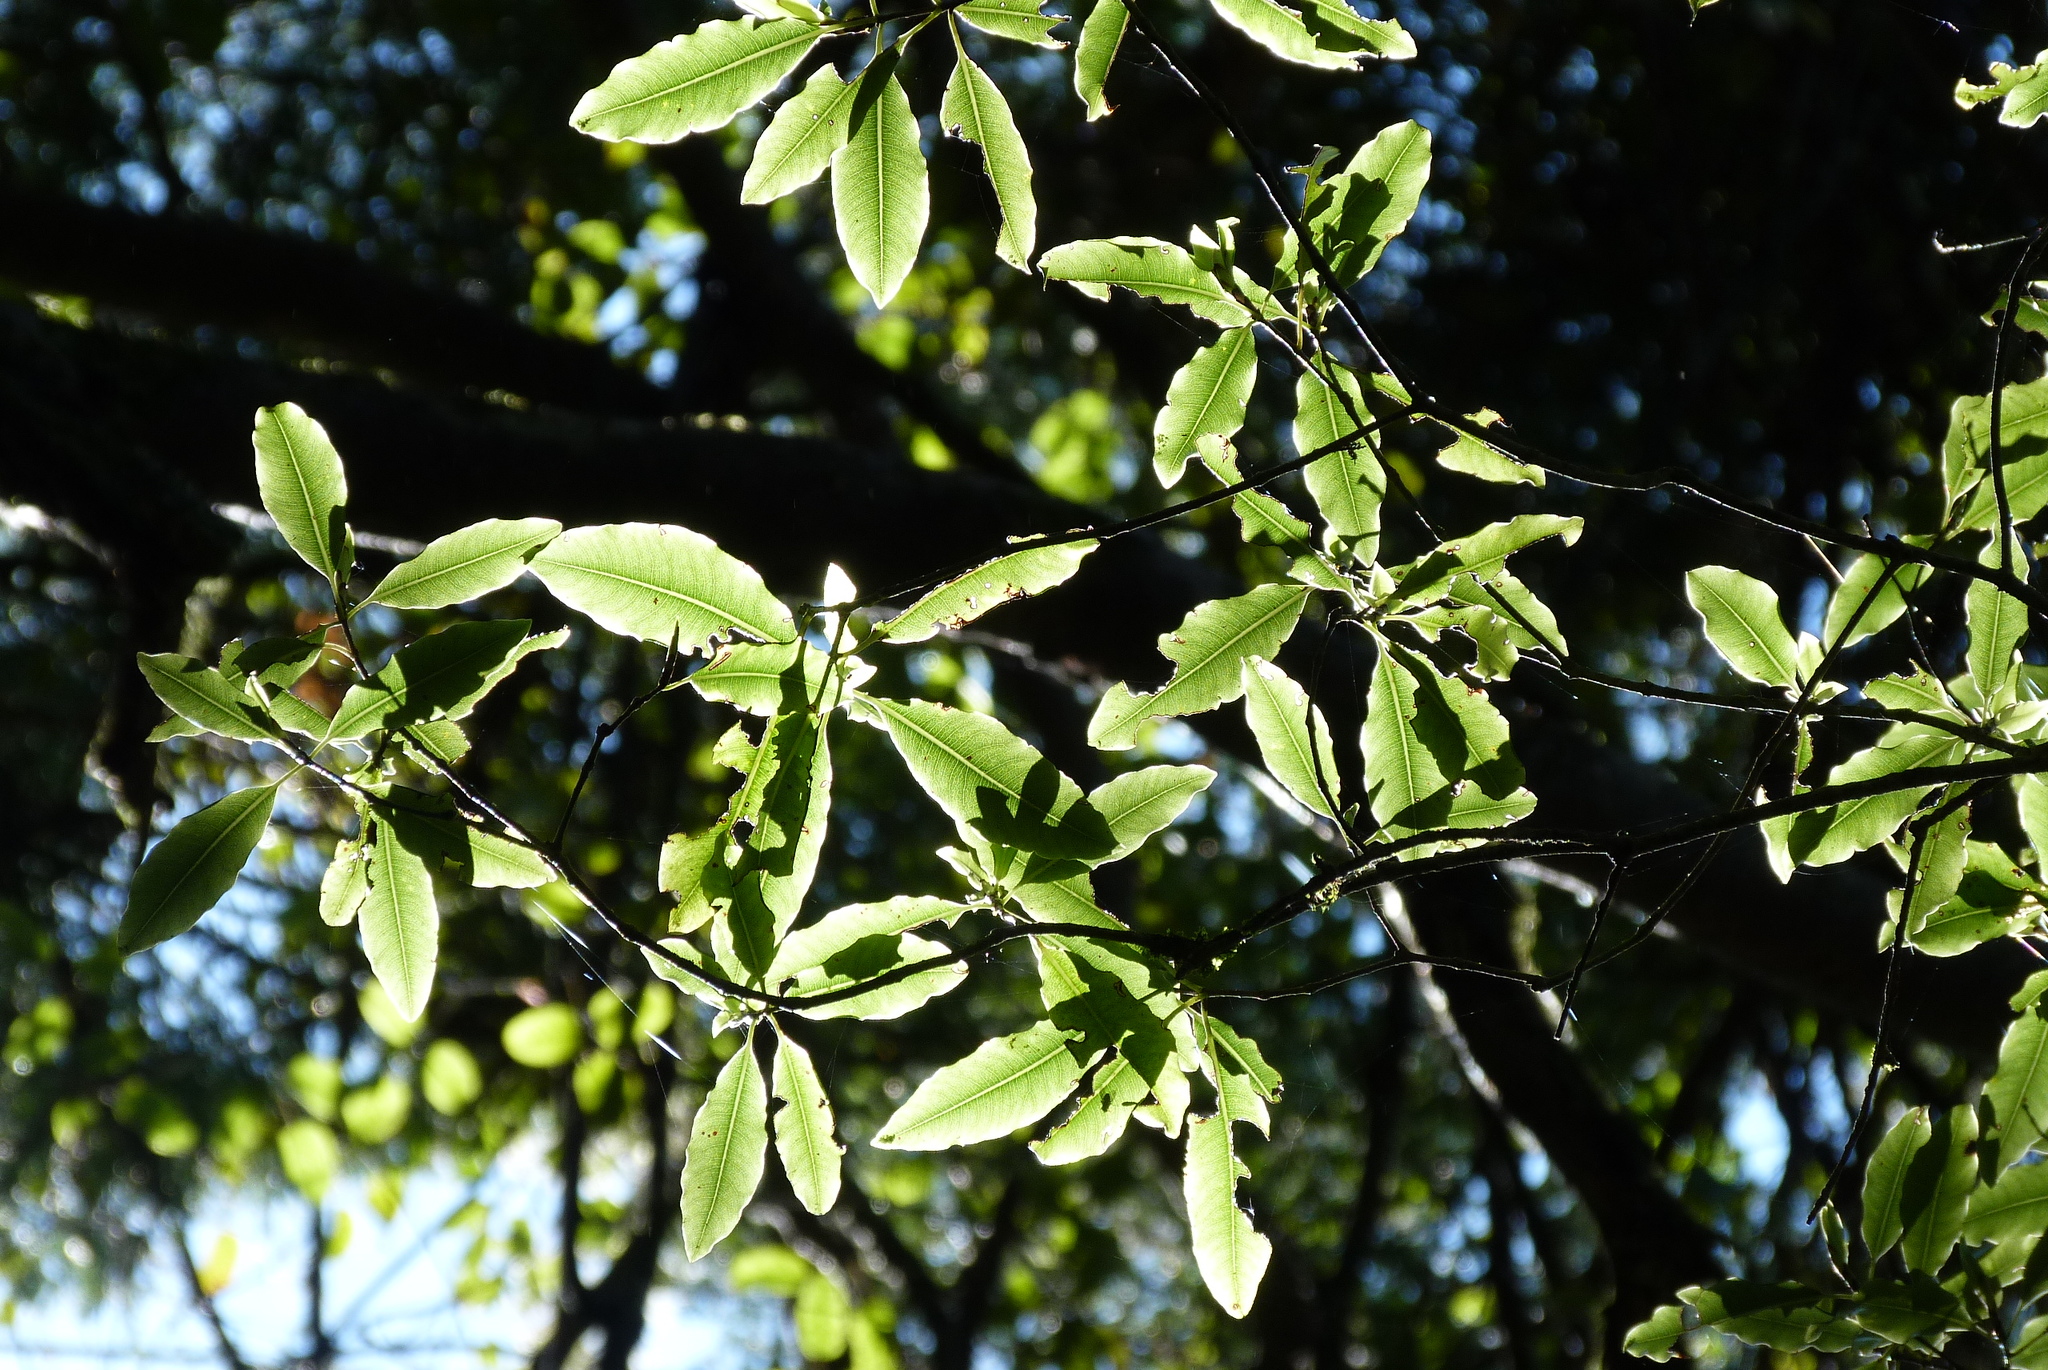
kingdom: Plantae
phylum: Tracheophyta
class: Magnoliopsida
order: Apiales
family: Pittosporaceae
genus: Pittosporum
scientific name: Pittosporum eugenioides
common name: Lemonwood
